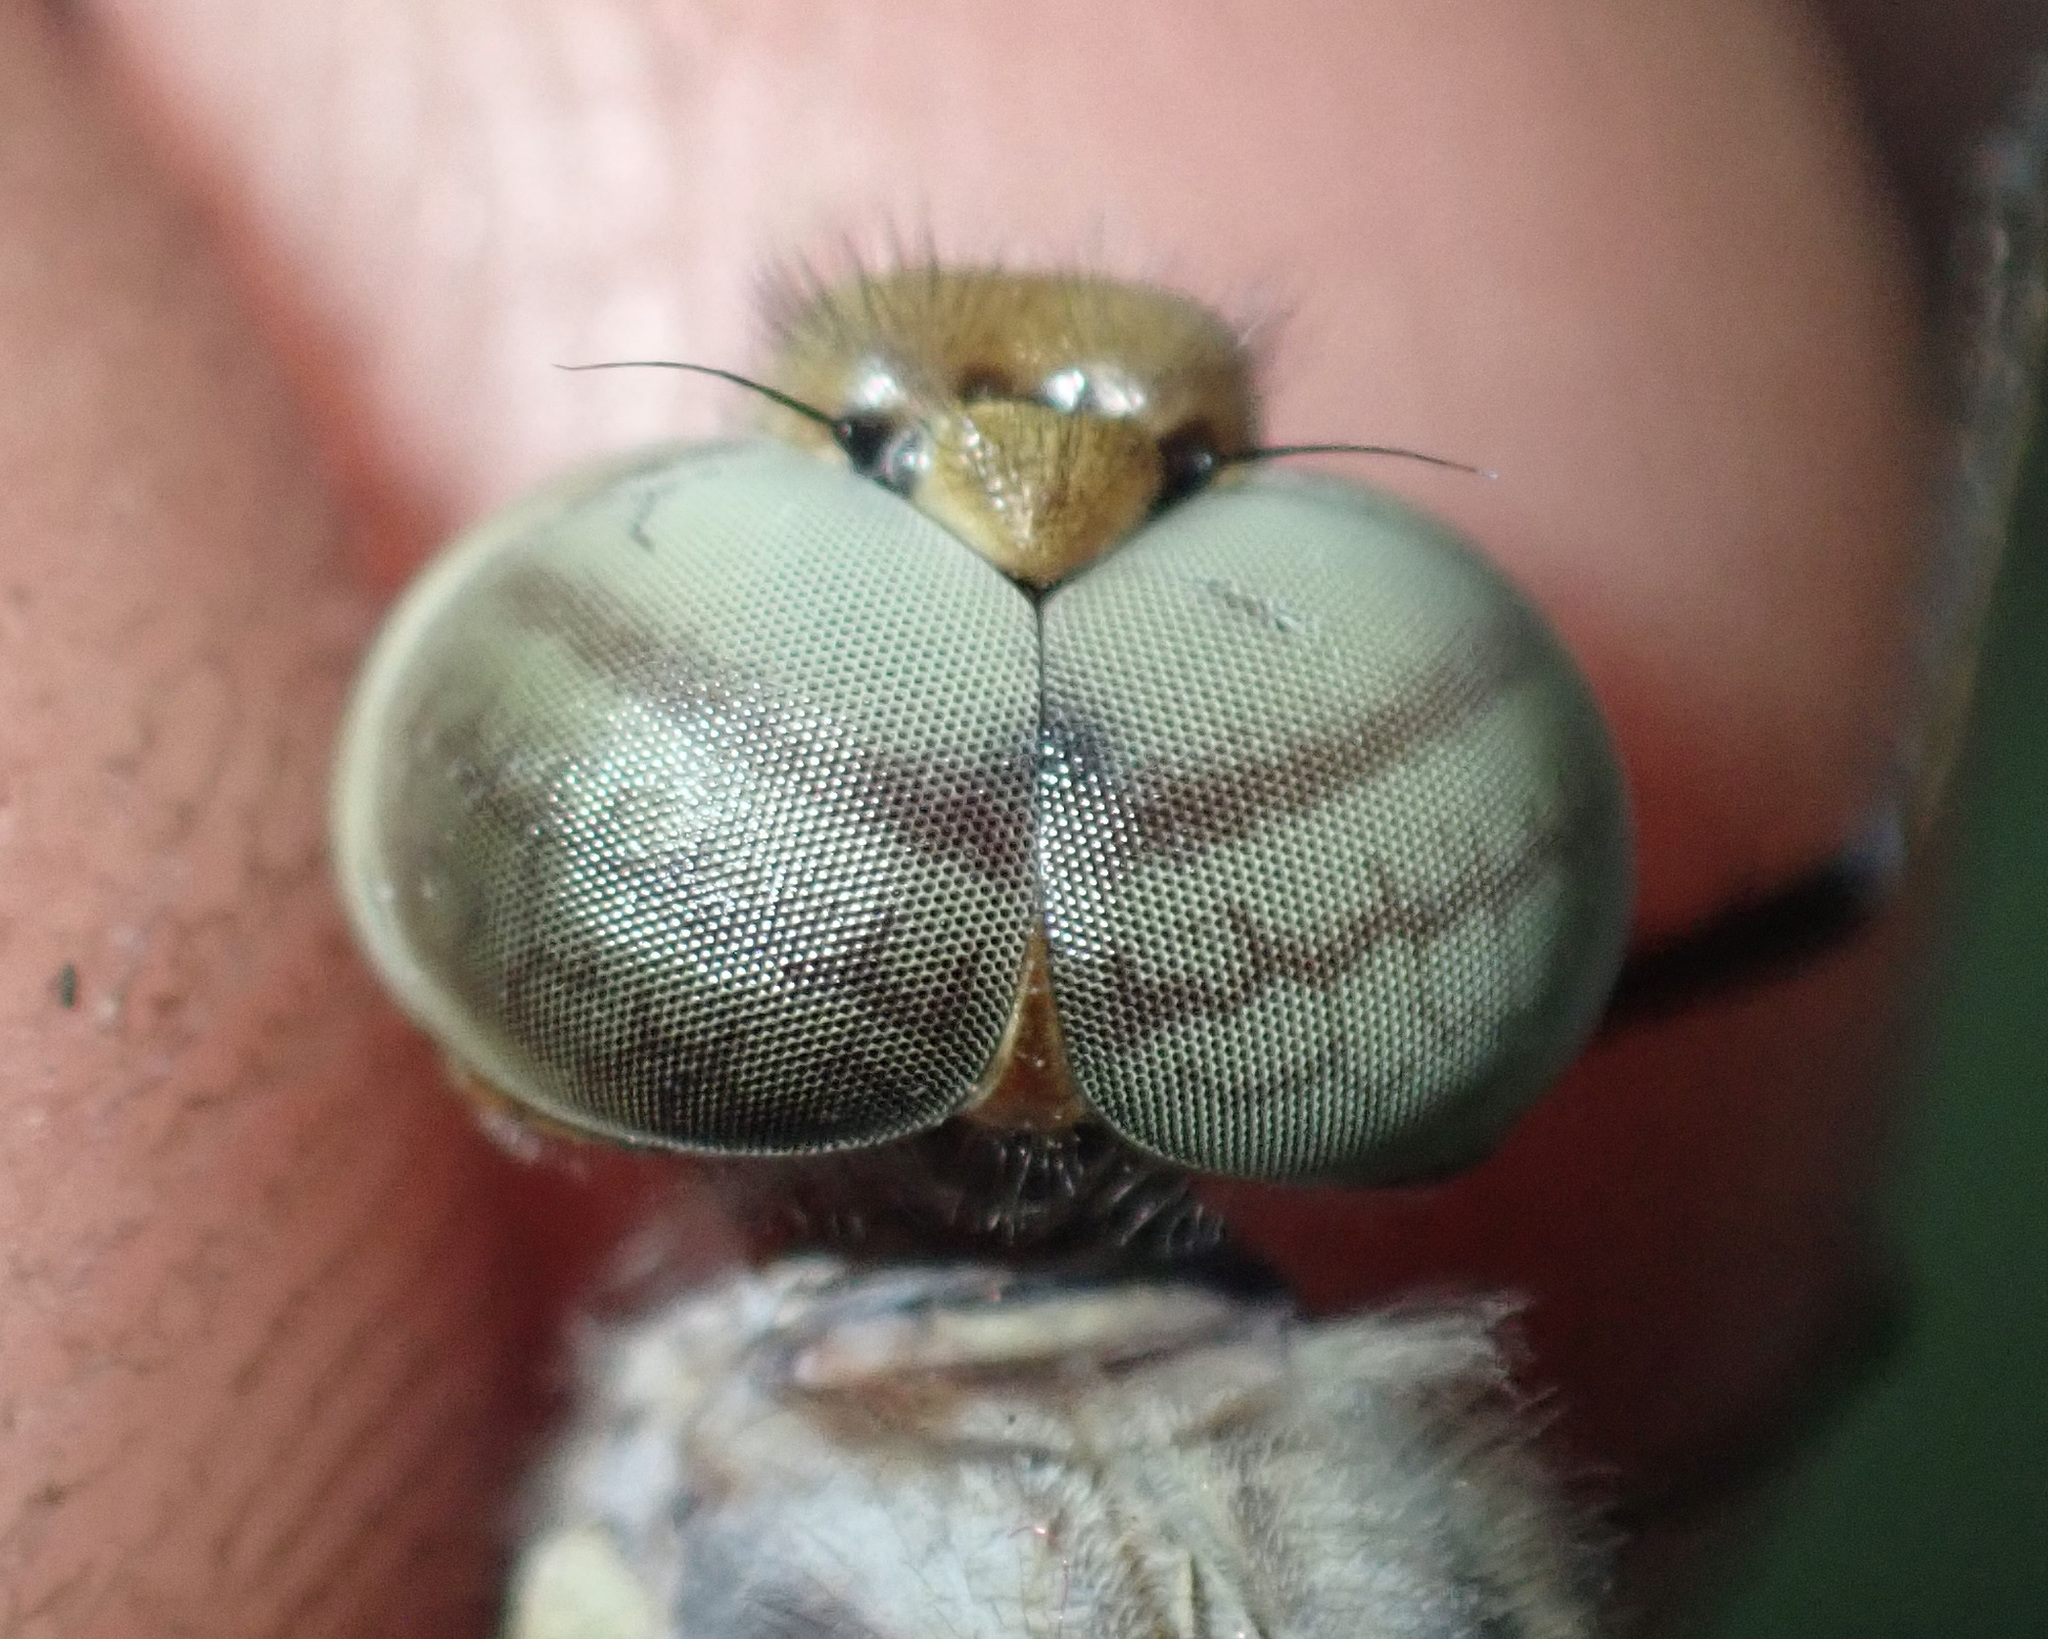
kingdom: Animalia
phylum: Arthropoda
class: Insecta
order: Odonata
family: Libellulidae
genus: Parazyxomma
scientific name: Parazyxomma flavicans
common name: Banded duskdarter
